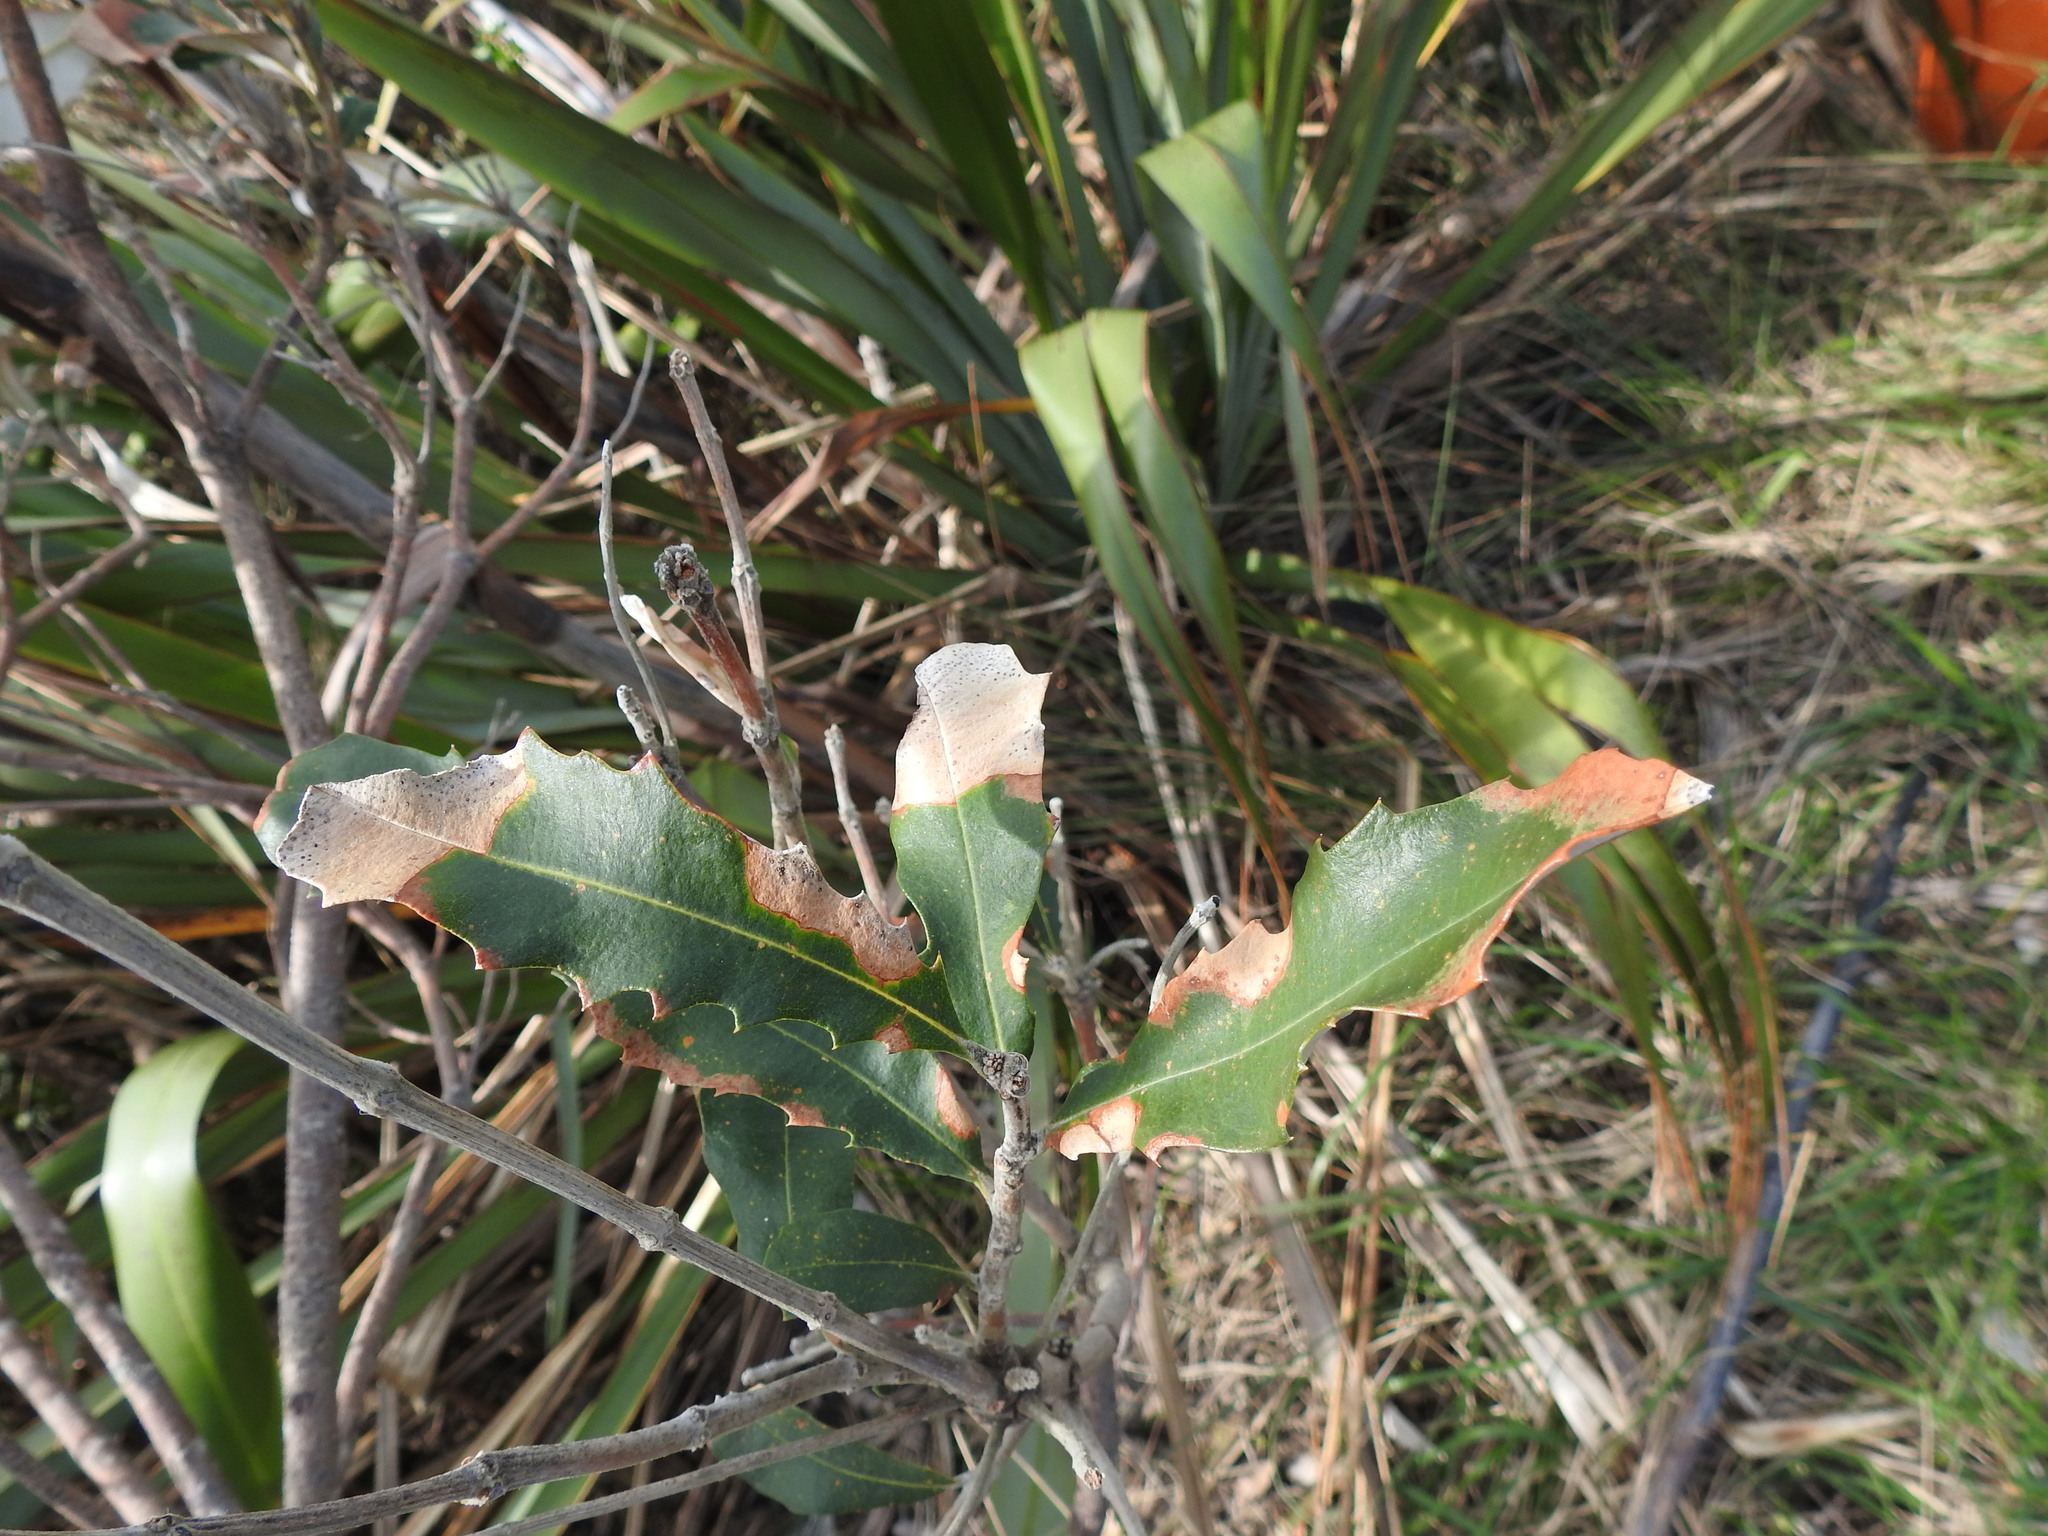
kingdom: Plantae
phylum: Tracheophyta
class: Magnoliopsida
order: Proteales
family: Proteaceae
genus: Banksia
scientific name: Banksia integrifolia
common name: White-honeysuckle
